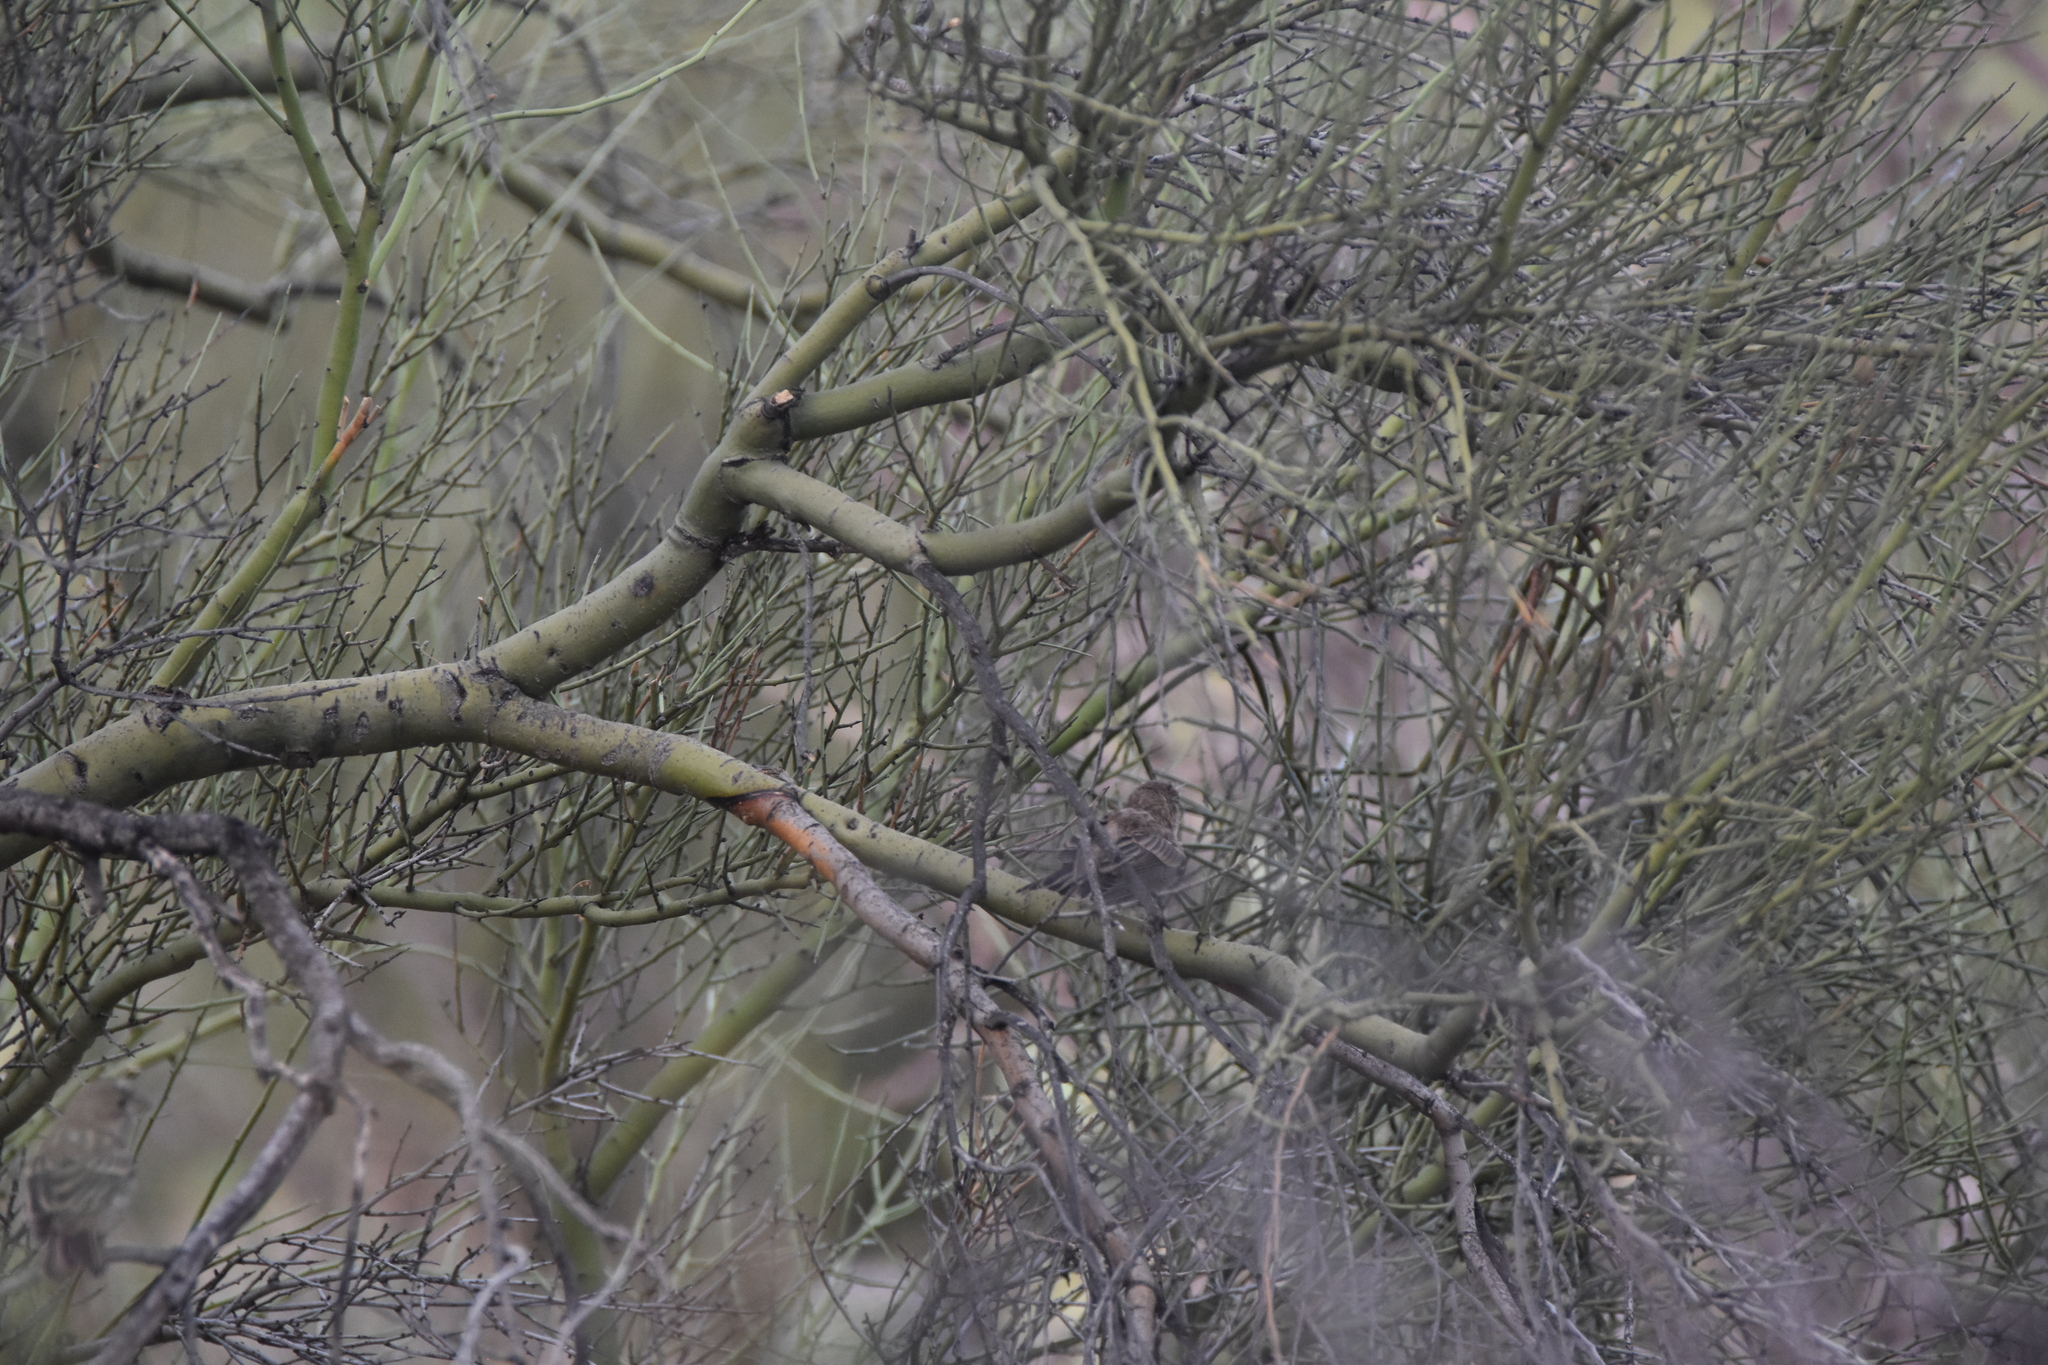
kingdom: Animalia
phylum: Chordata
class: Aves
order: Passeriformes
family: Fringillidae
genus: Haemorhous
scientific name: Haemorhous mexicanus
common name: House finch
